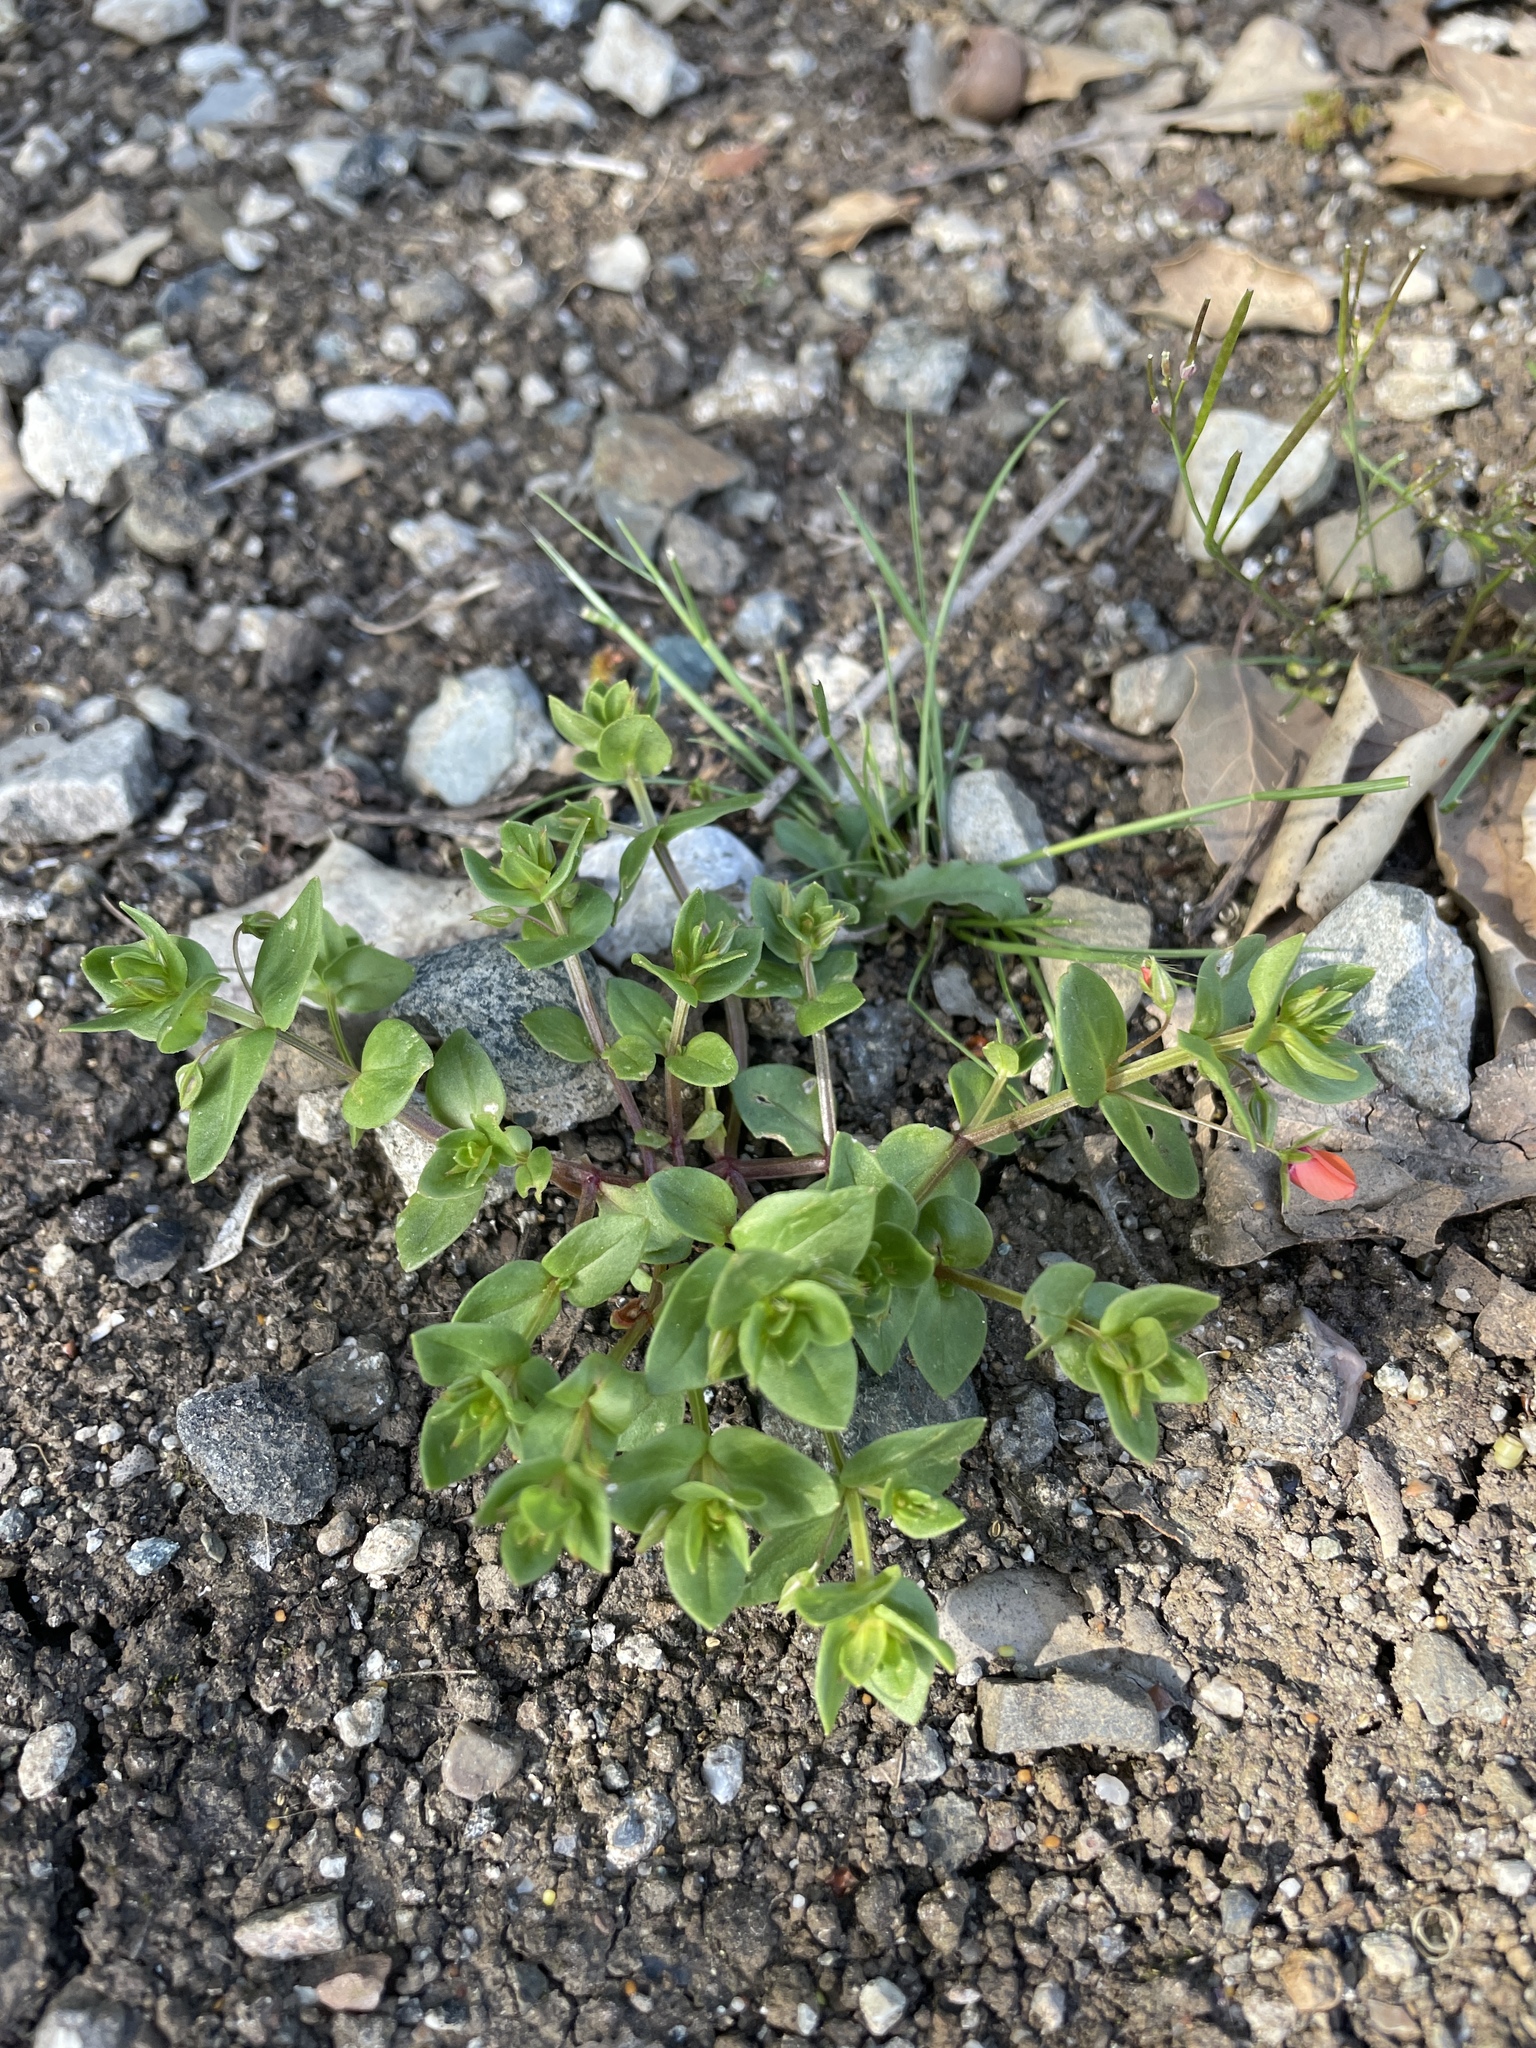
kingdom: Plantae
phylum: Tracheophyta
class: Magnoliopsida
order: Ericales
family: Primulaceae
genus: Lysimachia
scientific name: Lysimachia arvensis
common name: Scarlet pimpernel
